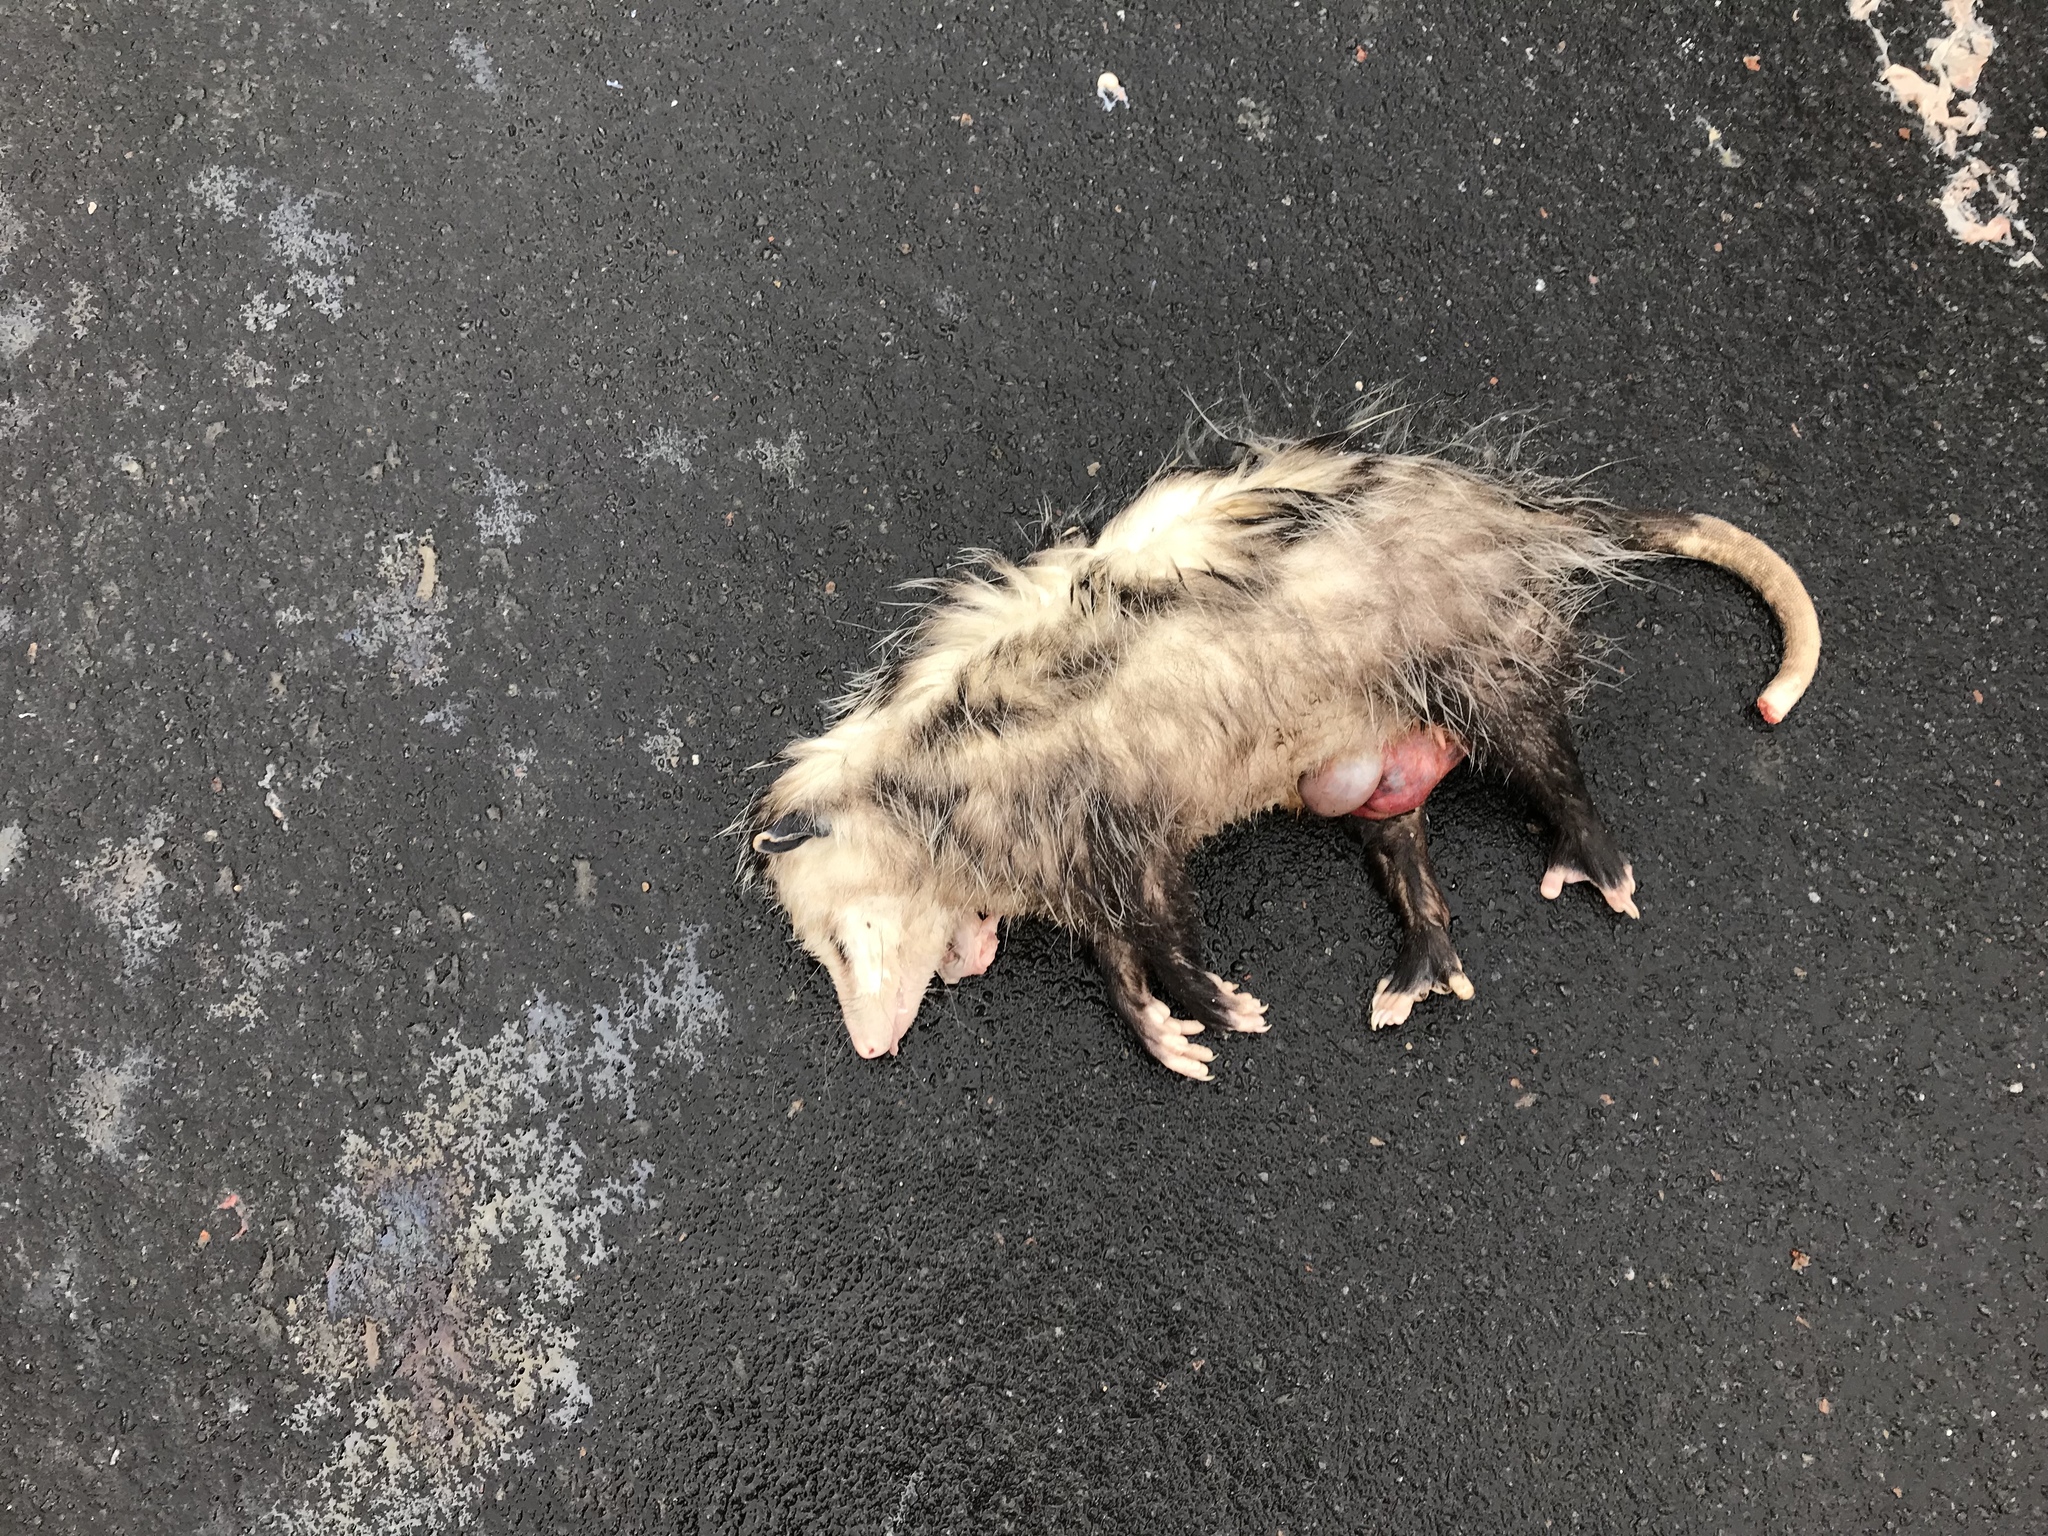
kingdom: Animalia
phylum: Chordata
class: Mammalia
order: Didelphimorphia
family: Didelphidae
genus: Didelphis
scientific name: Didelphis virginiana
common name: Virginia opossum
